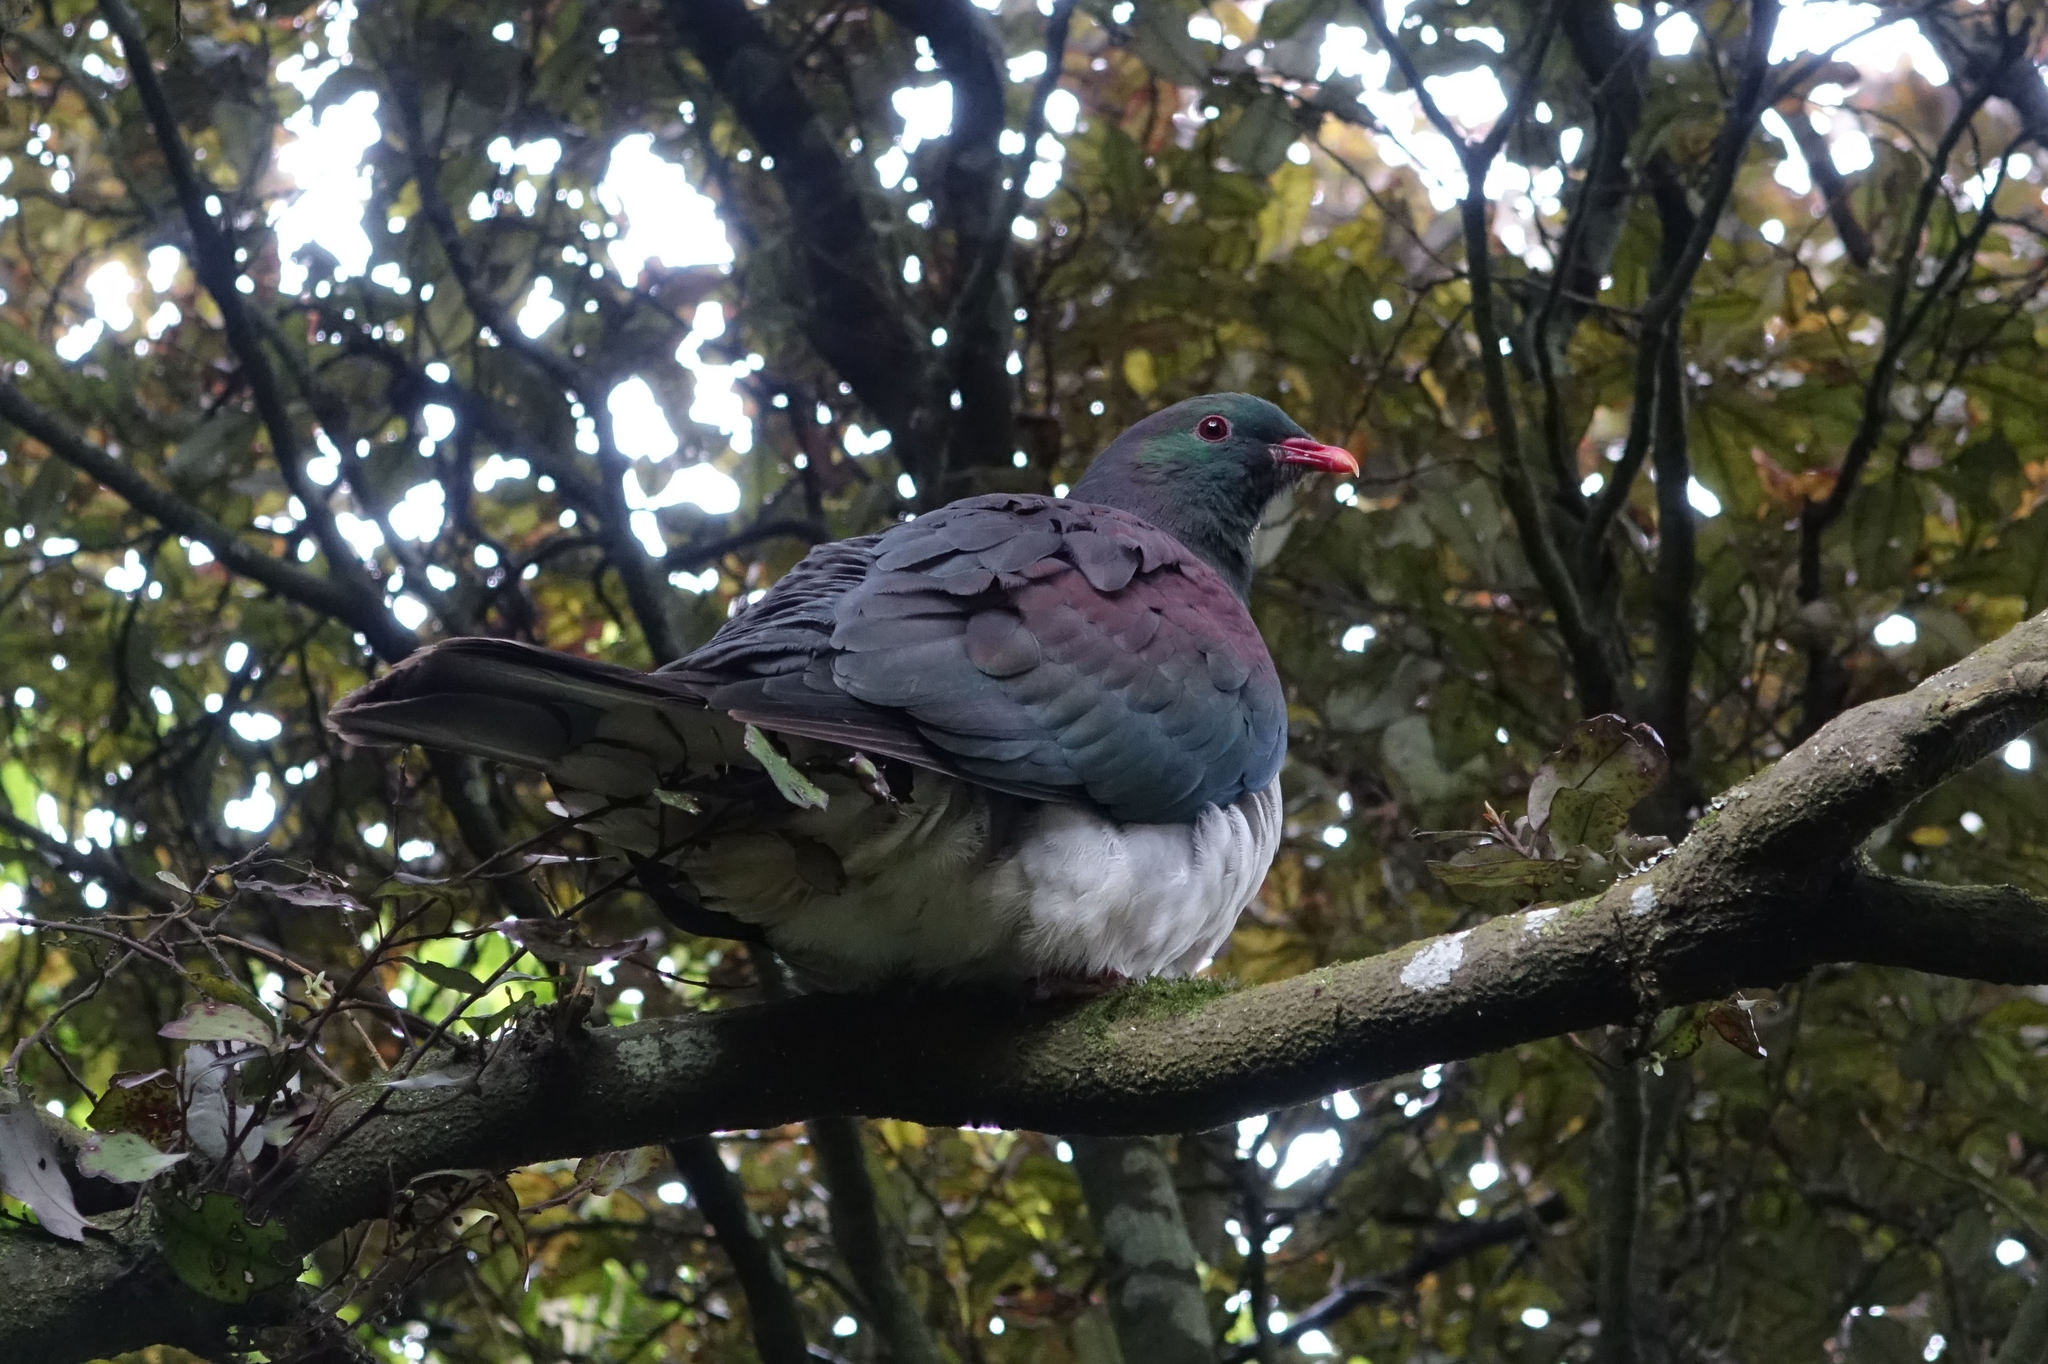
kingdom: Animalia
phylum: Chordata
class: Aves
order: Columbiformes
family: Columbidae
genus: Hemiphaga
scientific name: Hemiphaga novaeseelandiae
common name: New zealand pigeon
